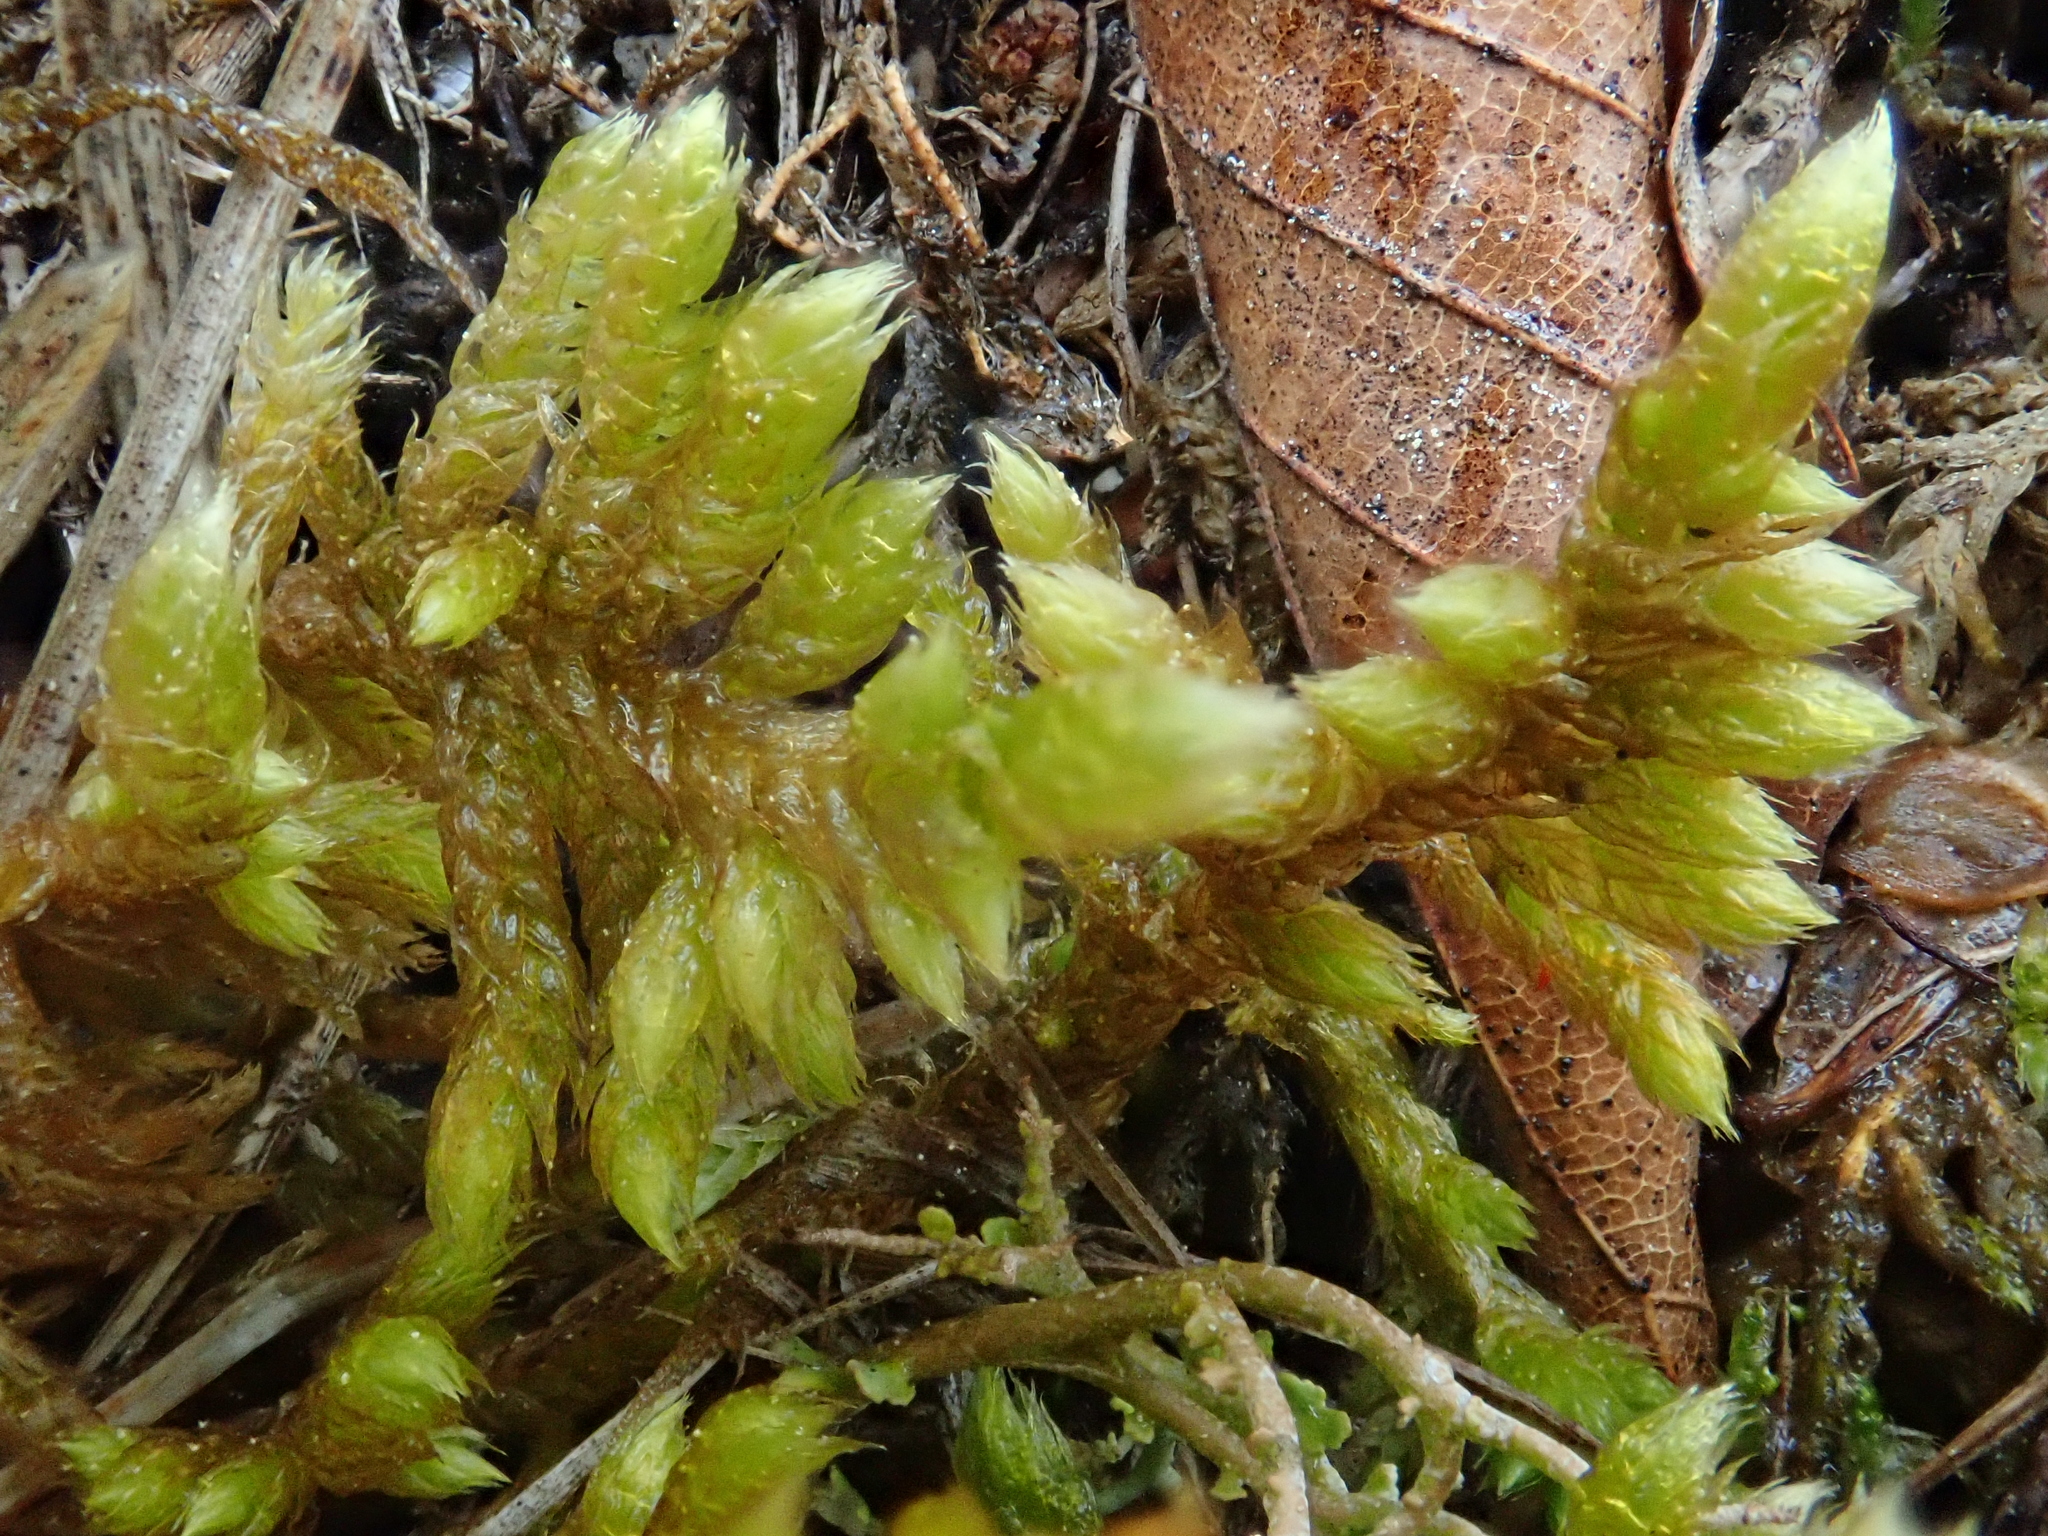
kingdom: Plantae
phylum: Bryophyta
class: Bryopsida
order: Hypnales
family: Rhytidiaceae
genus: Rhytidium
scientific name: Rhytidium rugosum
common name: Wrinkle-leaved moss
